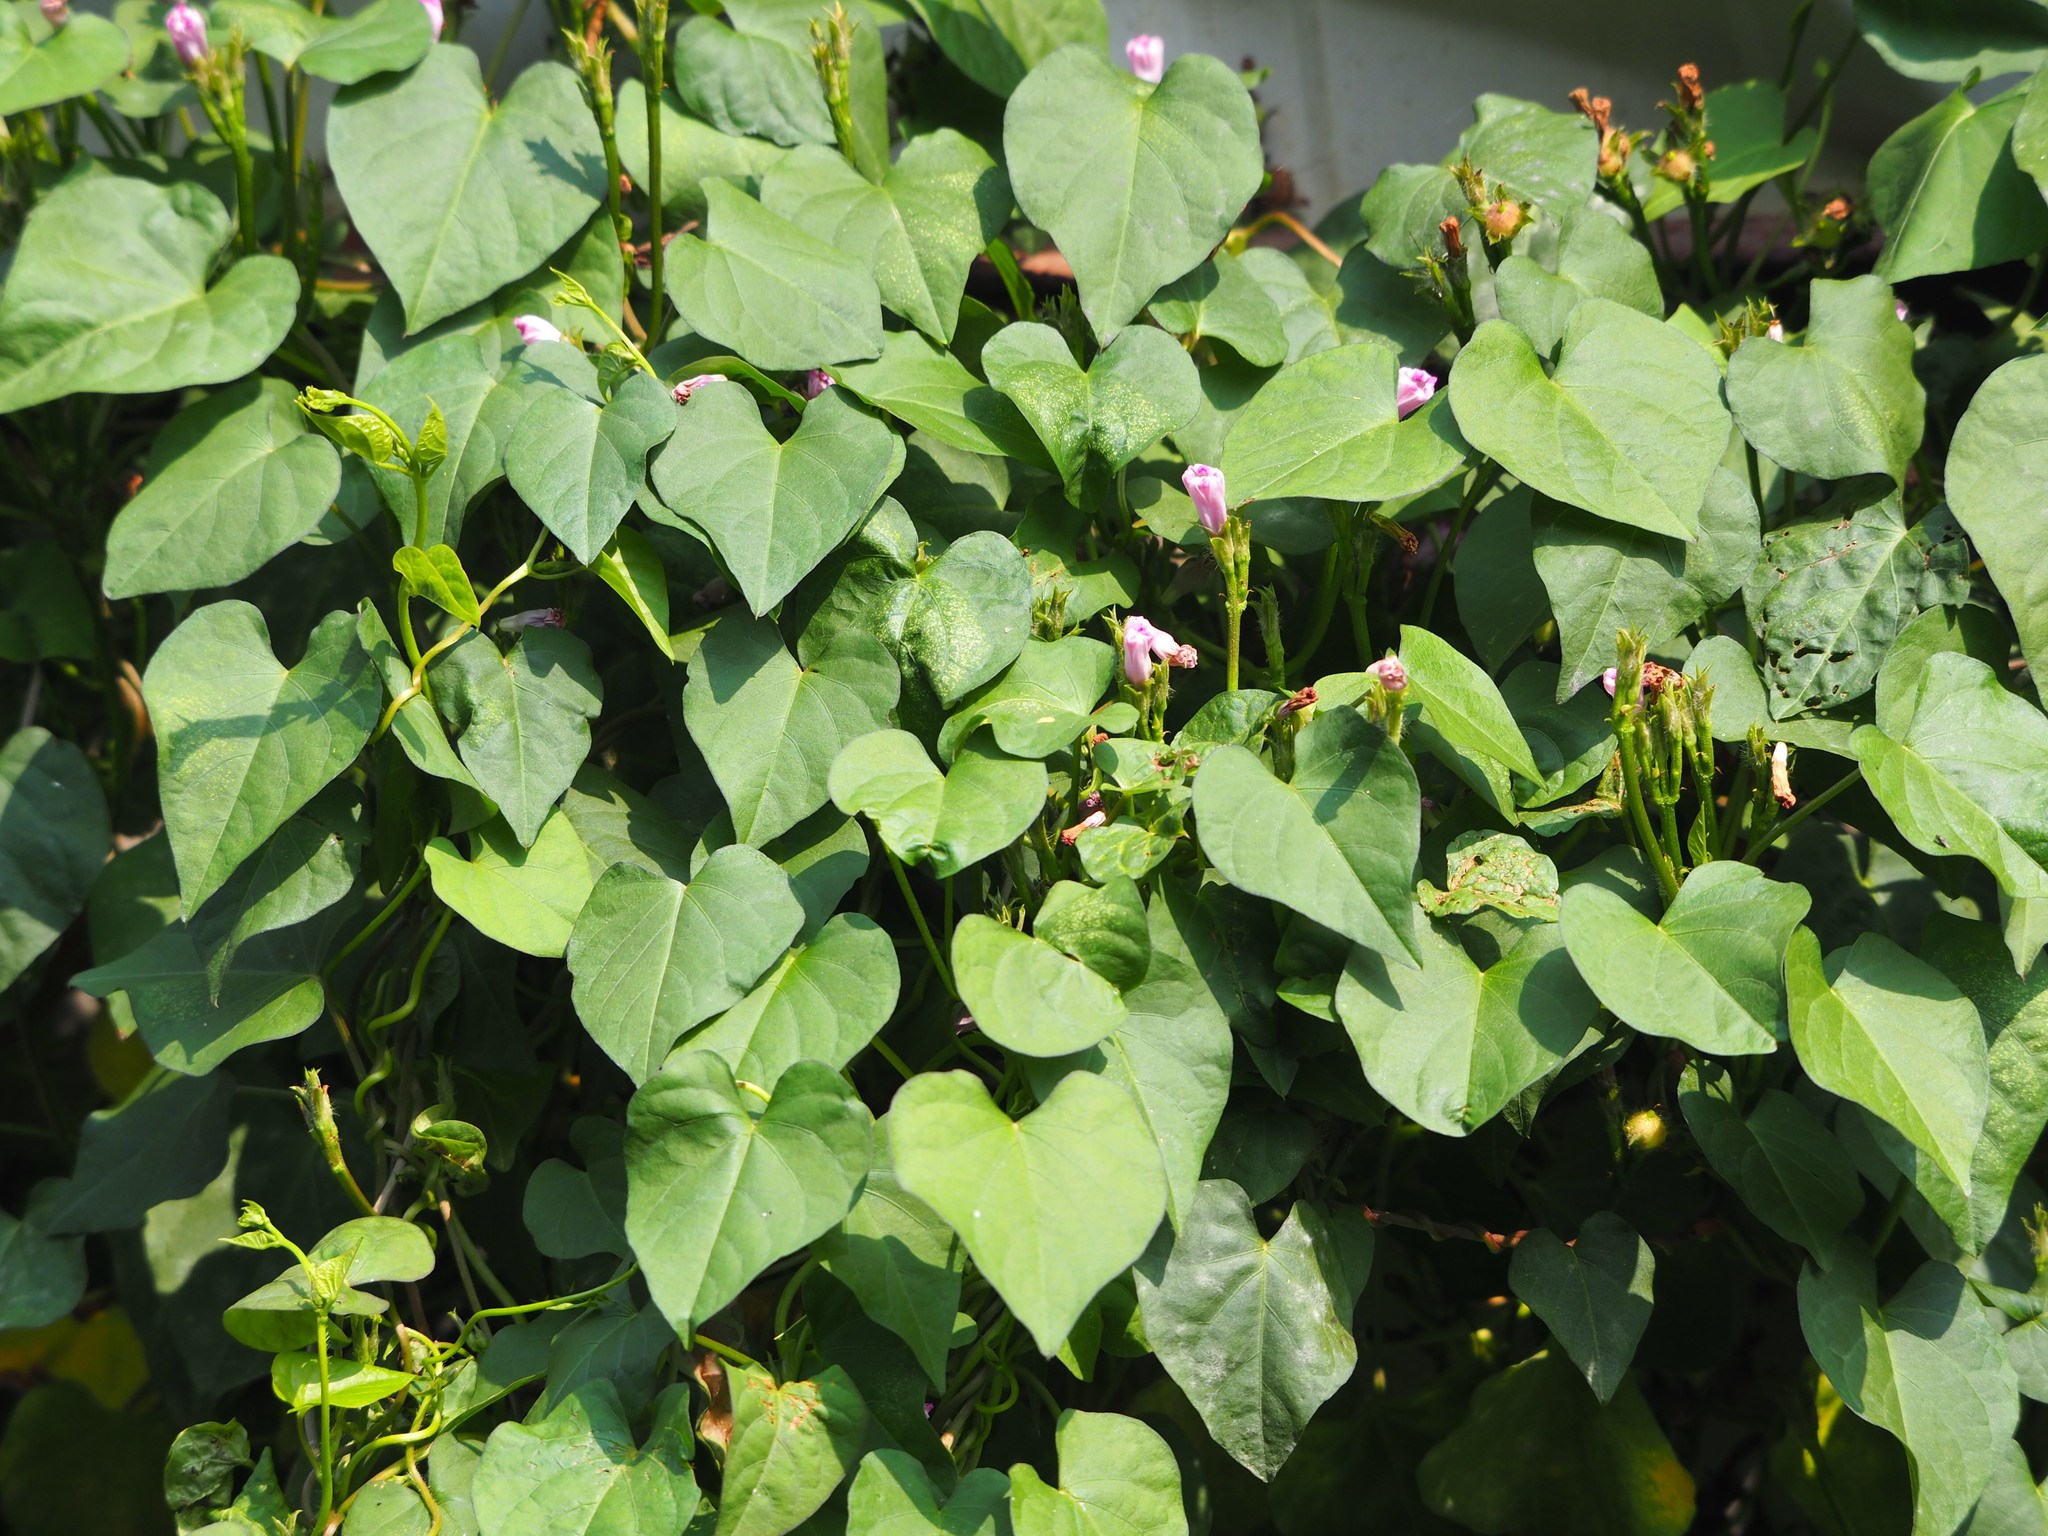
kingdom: Plantae
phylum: Tracheophyta
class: Magnoliopsida
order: Solanales
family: Convolvulaceae
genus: Ipomoea
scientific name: Ipomoea triloba
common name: Little-bell
